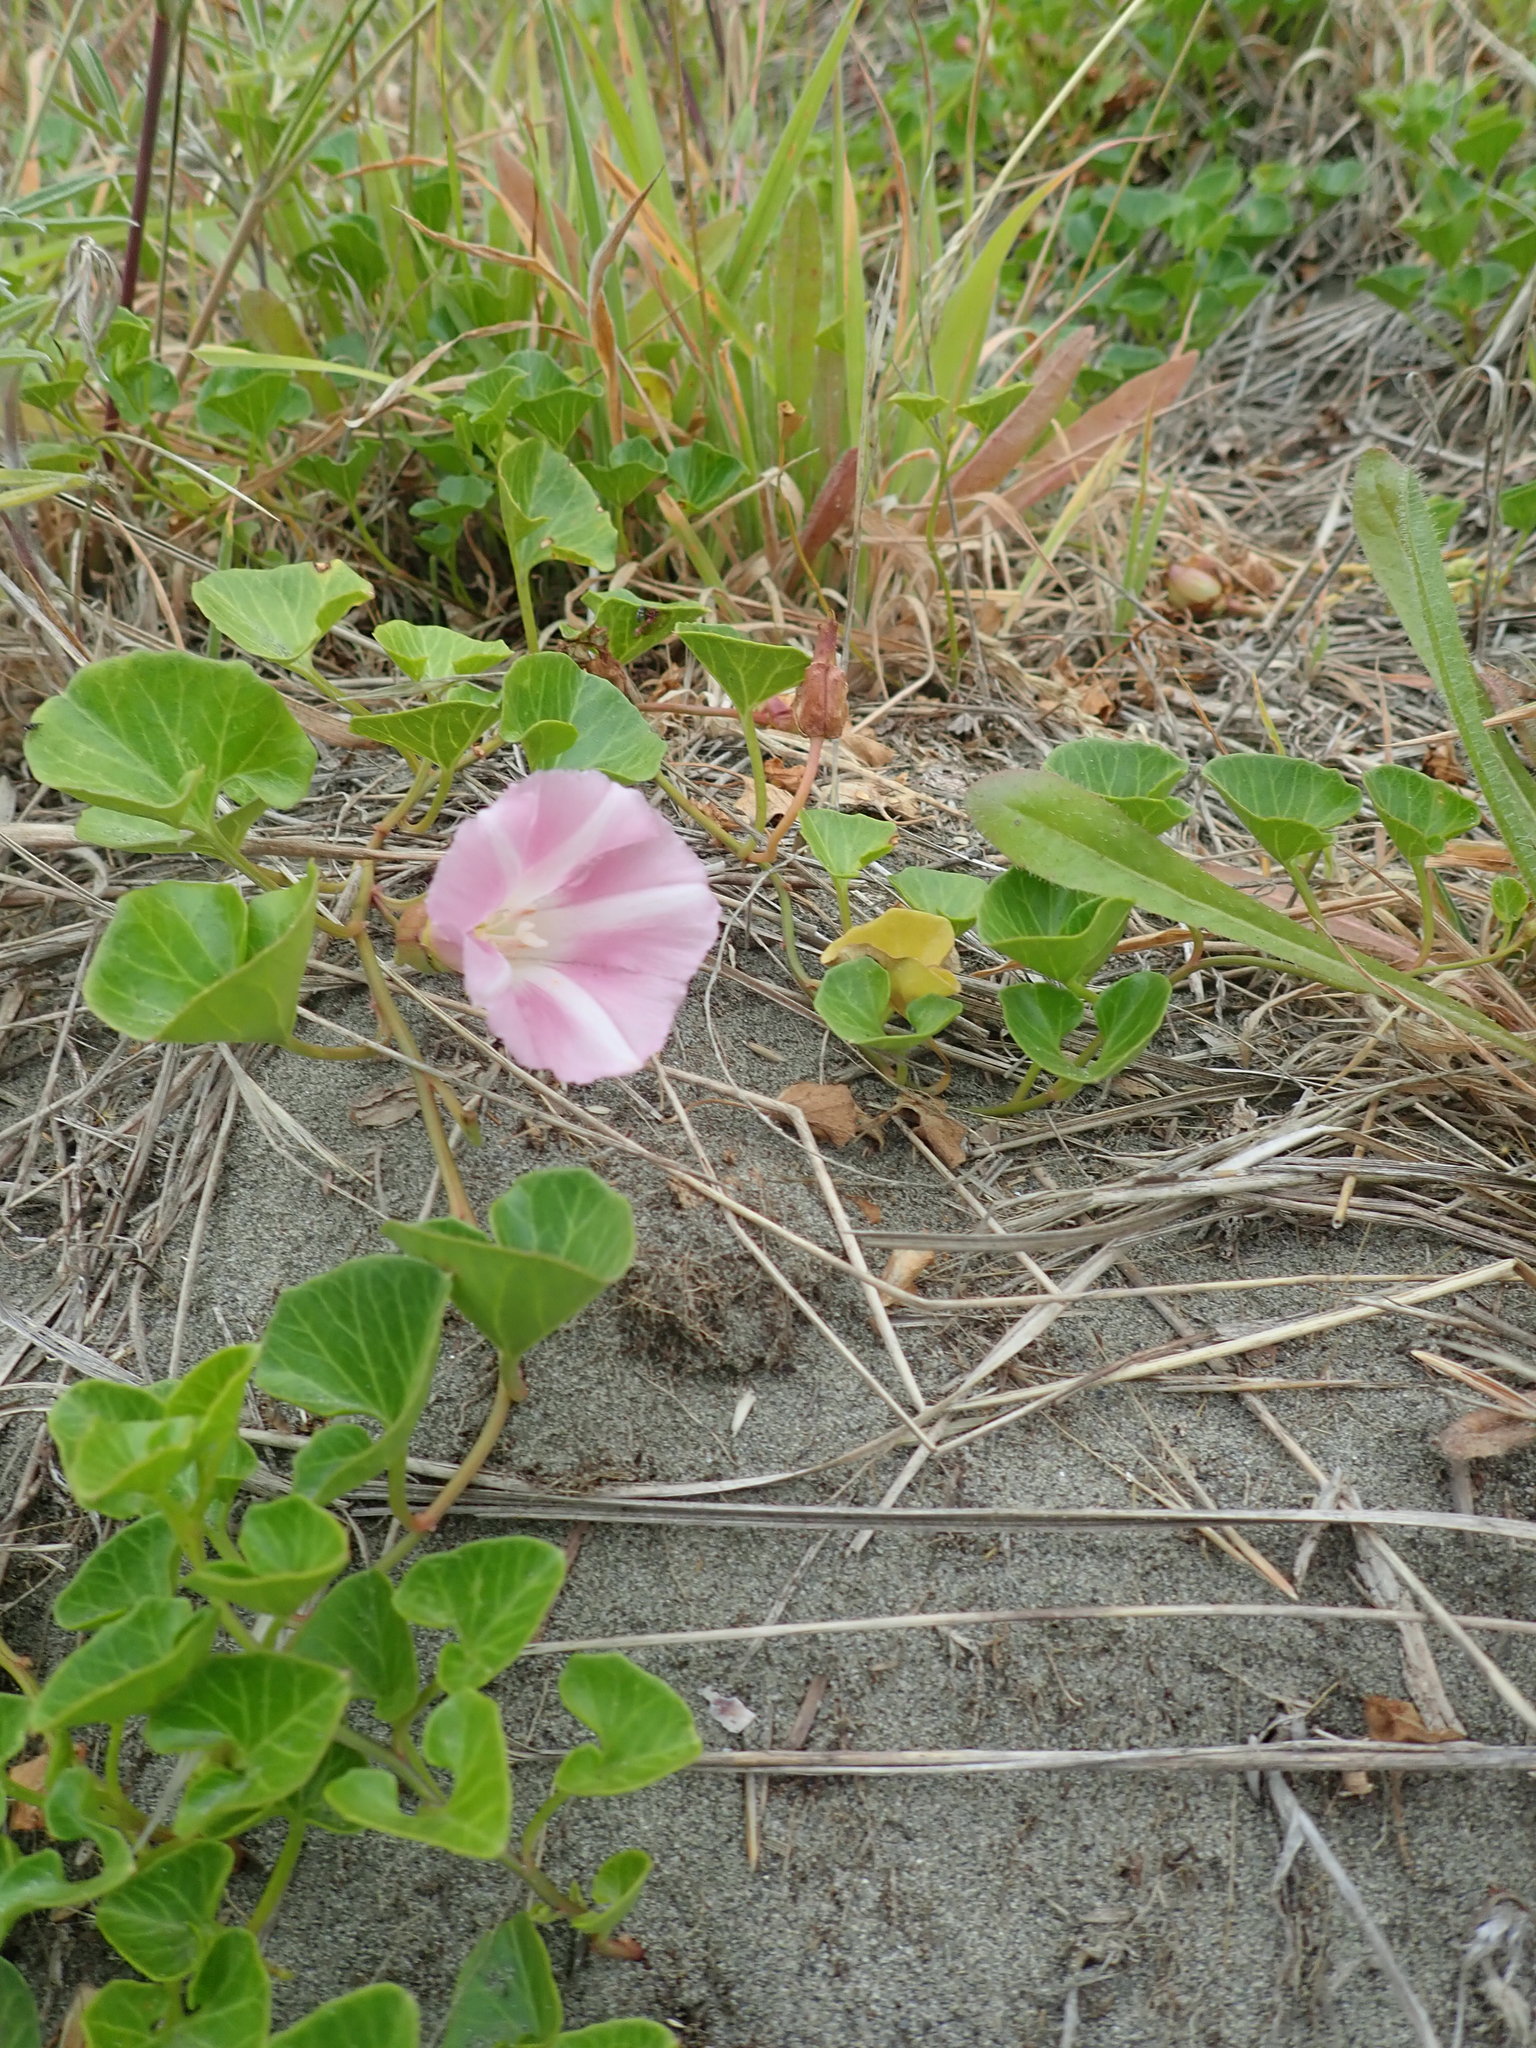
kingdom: Plantae
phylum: Tracheophyta
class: Magnoliopsida
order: Solanales
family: Convolvulaceae
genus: Calystegia
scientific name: Calystegia soldanella
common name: Sea bindweed
